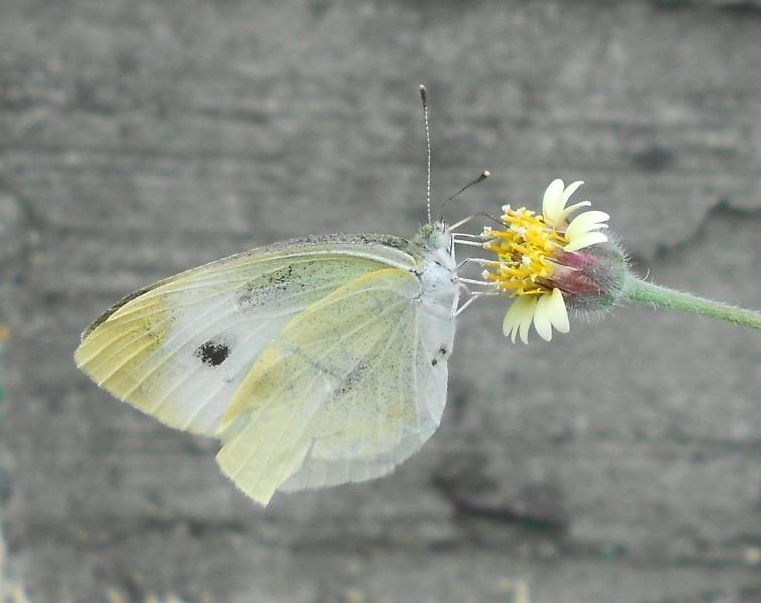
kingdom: Animalia
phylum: Arthropoda
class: Insecta
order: Lepidoptera
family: Pieridae
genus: Pieris
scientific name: Pieris rapae
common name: Small white
